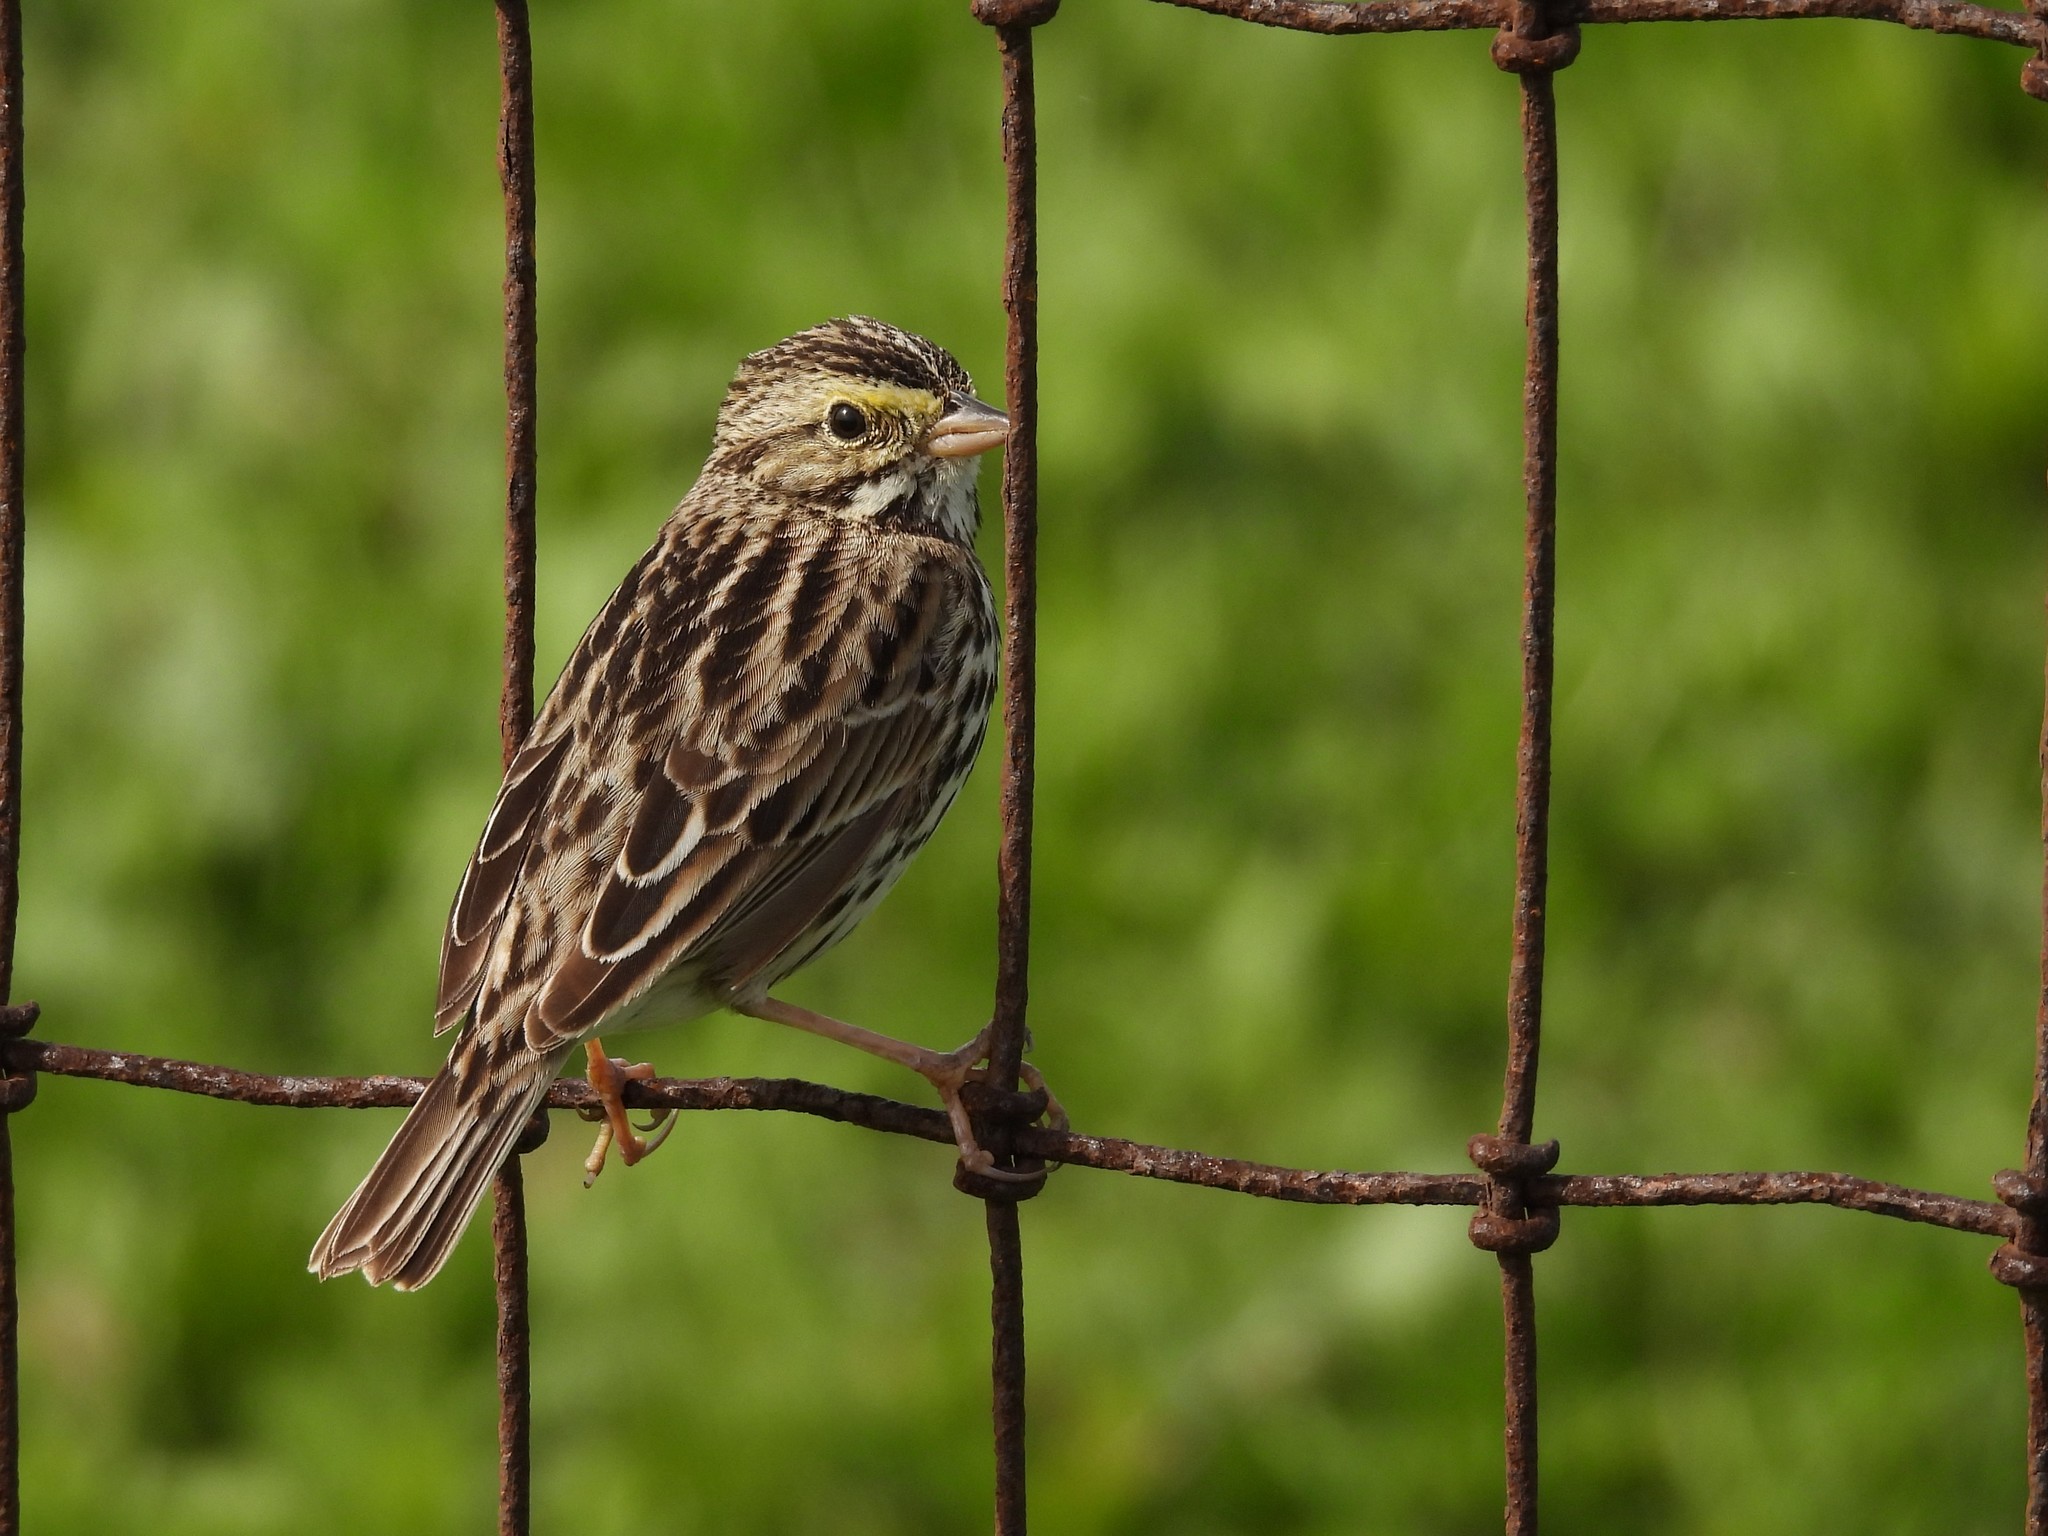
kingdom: Animalia
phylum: Chordata
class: Aves
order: Passeriformes
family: Passerellidae
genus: Passerculus
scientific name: Passerculus sandwichensis
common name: Savannah sparrow
